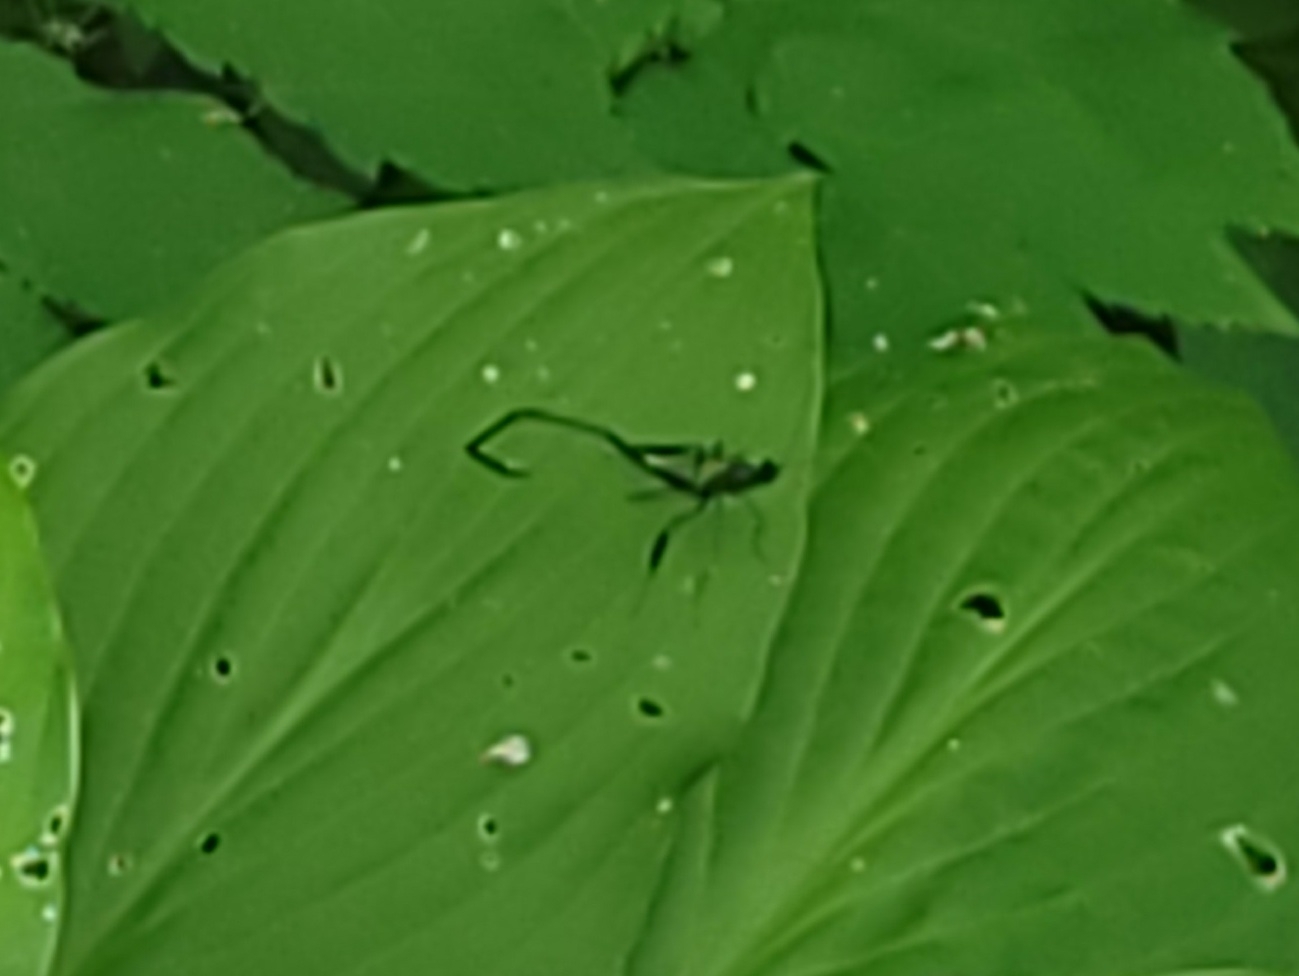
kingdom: Animalia
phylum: Arthropoda
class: Insecta
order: Hymenoptera
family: Pelecinidae
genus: Pelecinus
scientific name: Pelecinus polyturator
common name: American pelecinid wasp
